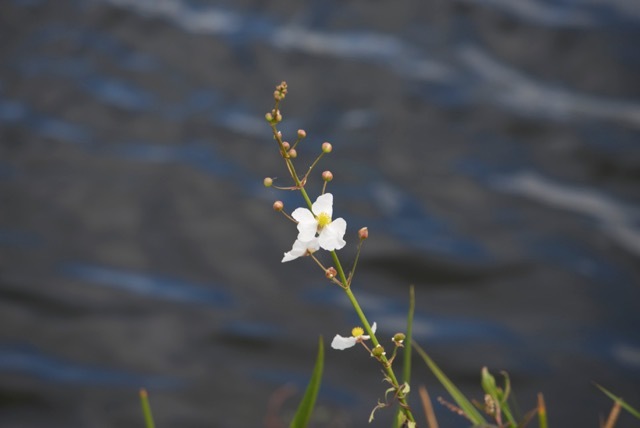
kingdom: Plantae
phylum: Tracheophyta
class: Liliopsida
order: Alismatales
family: Alismataceae
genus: Sagittaria
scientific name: Sagittaria lancifolia
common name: Lance-leaf arrowhead
